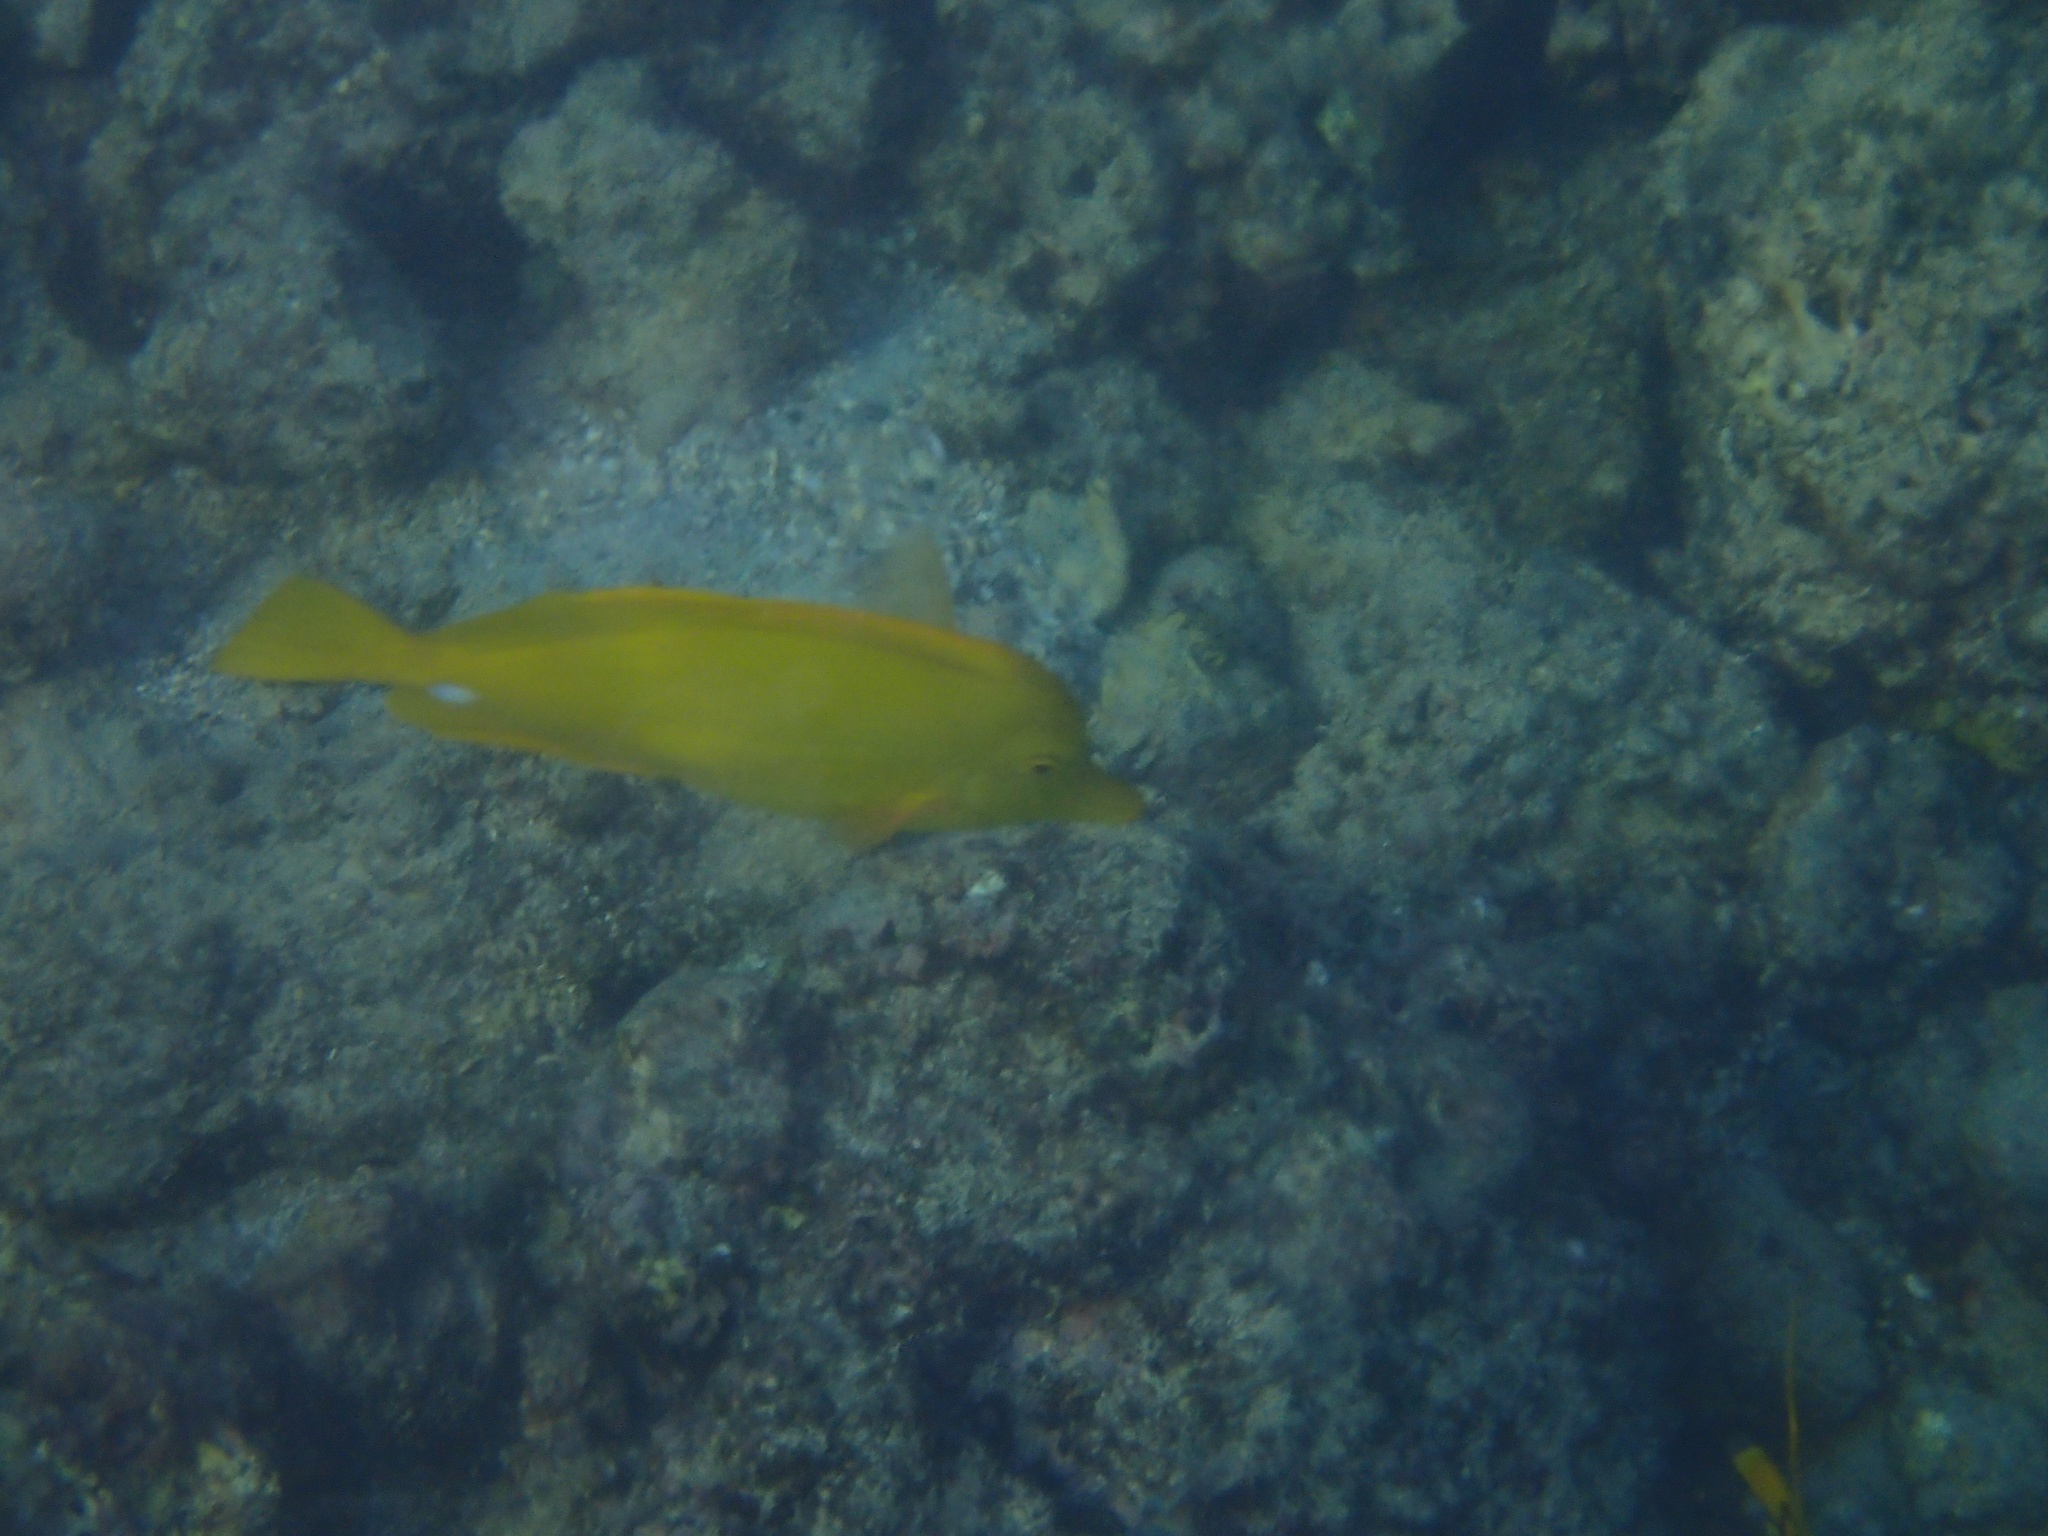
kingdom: Animalia
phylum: Chordata
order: Perciformes
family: Acanthuridae
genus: Zebrasoma
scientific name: Zebrasoma flavescens
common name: Yellow tang
